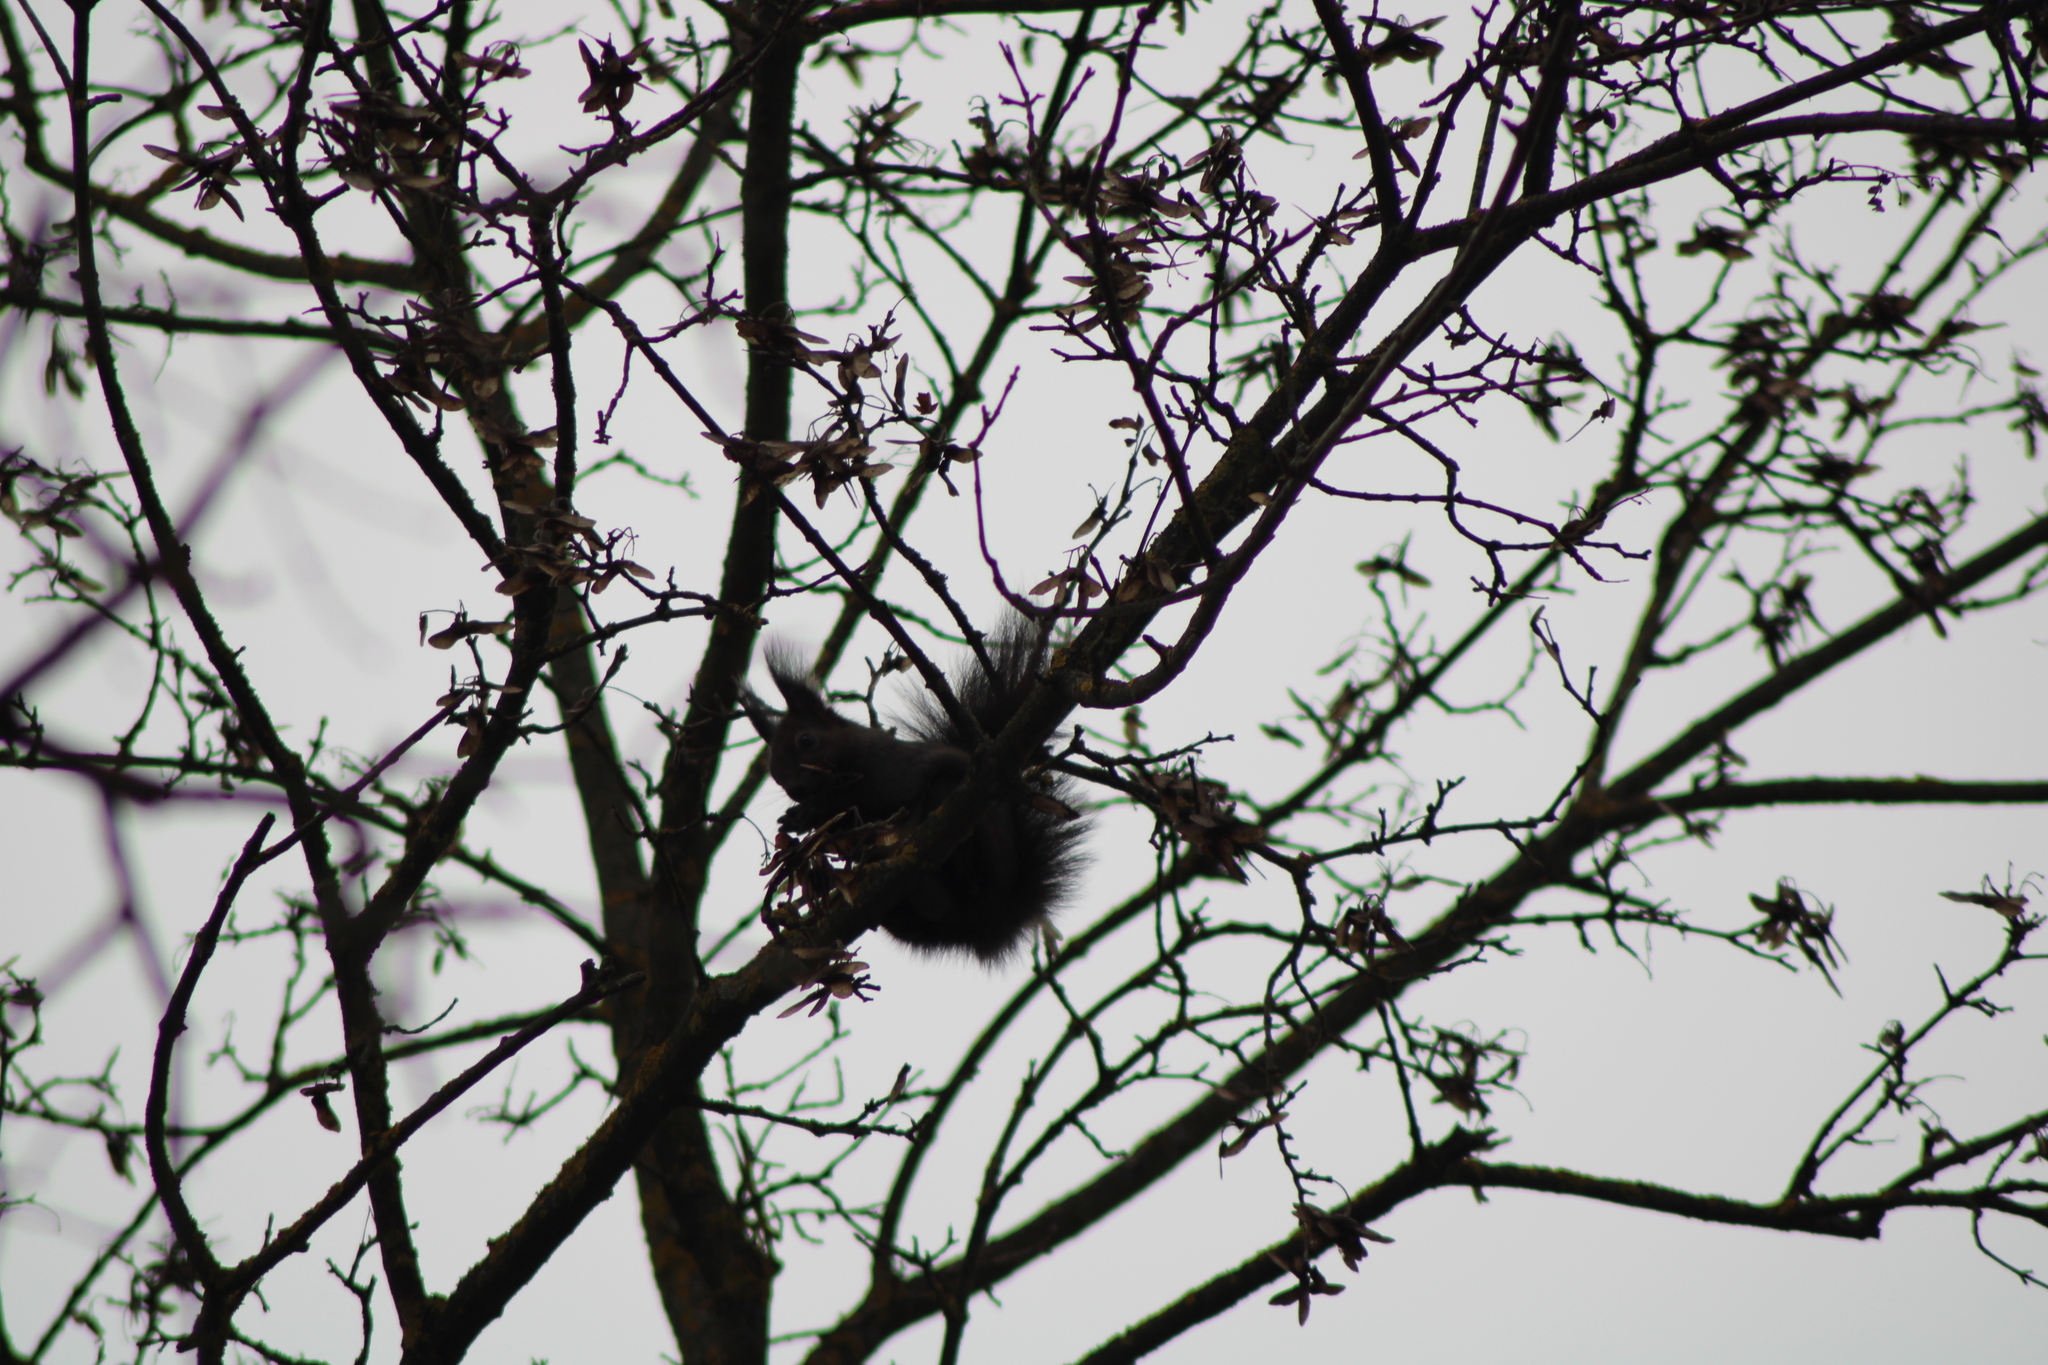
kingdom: Animalia
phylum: Chordata
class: Mammalia
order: Rodentia
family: Sciuridae
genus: Sciurus
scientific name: Sciurus vulgaris
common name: Eurasian red squirrel
